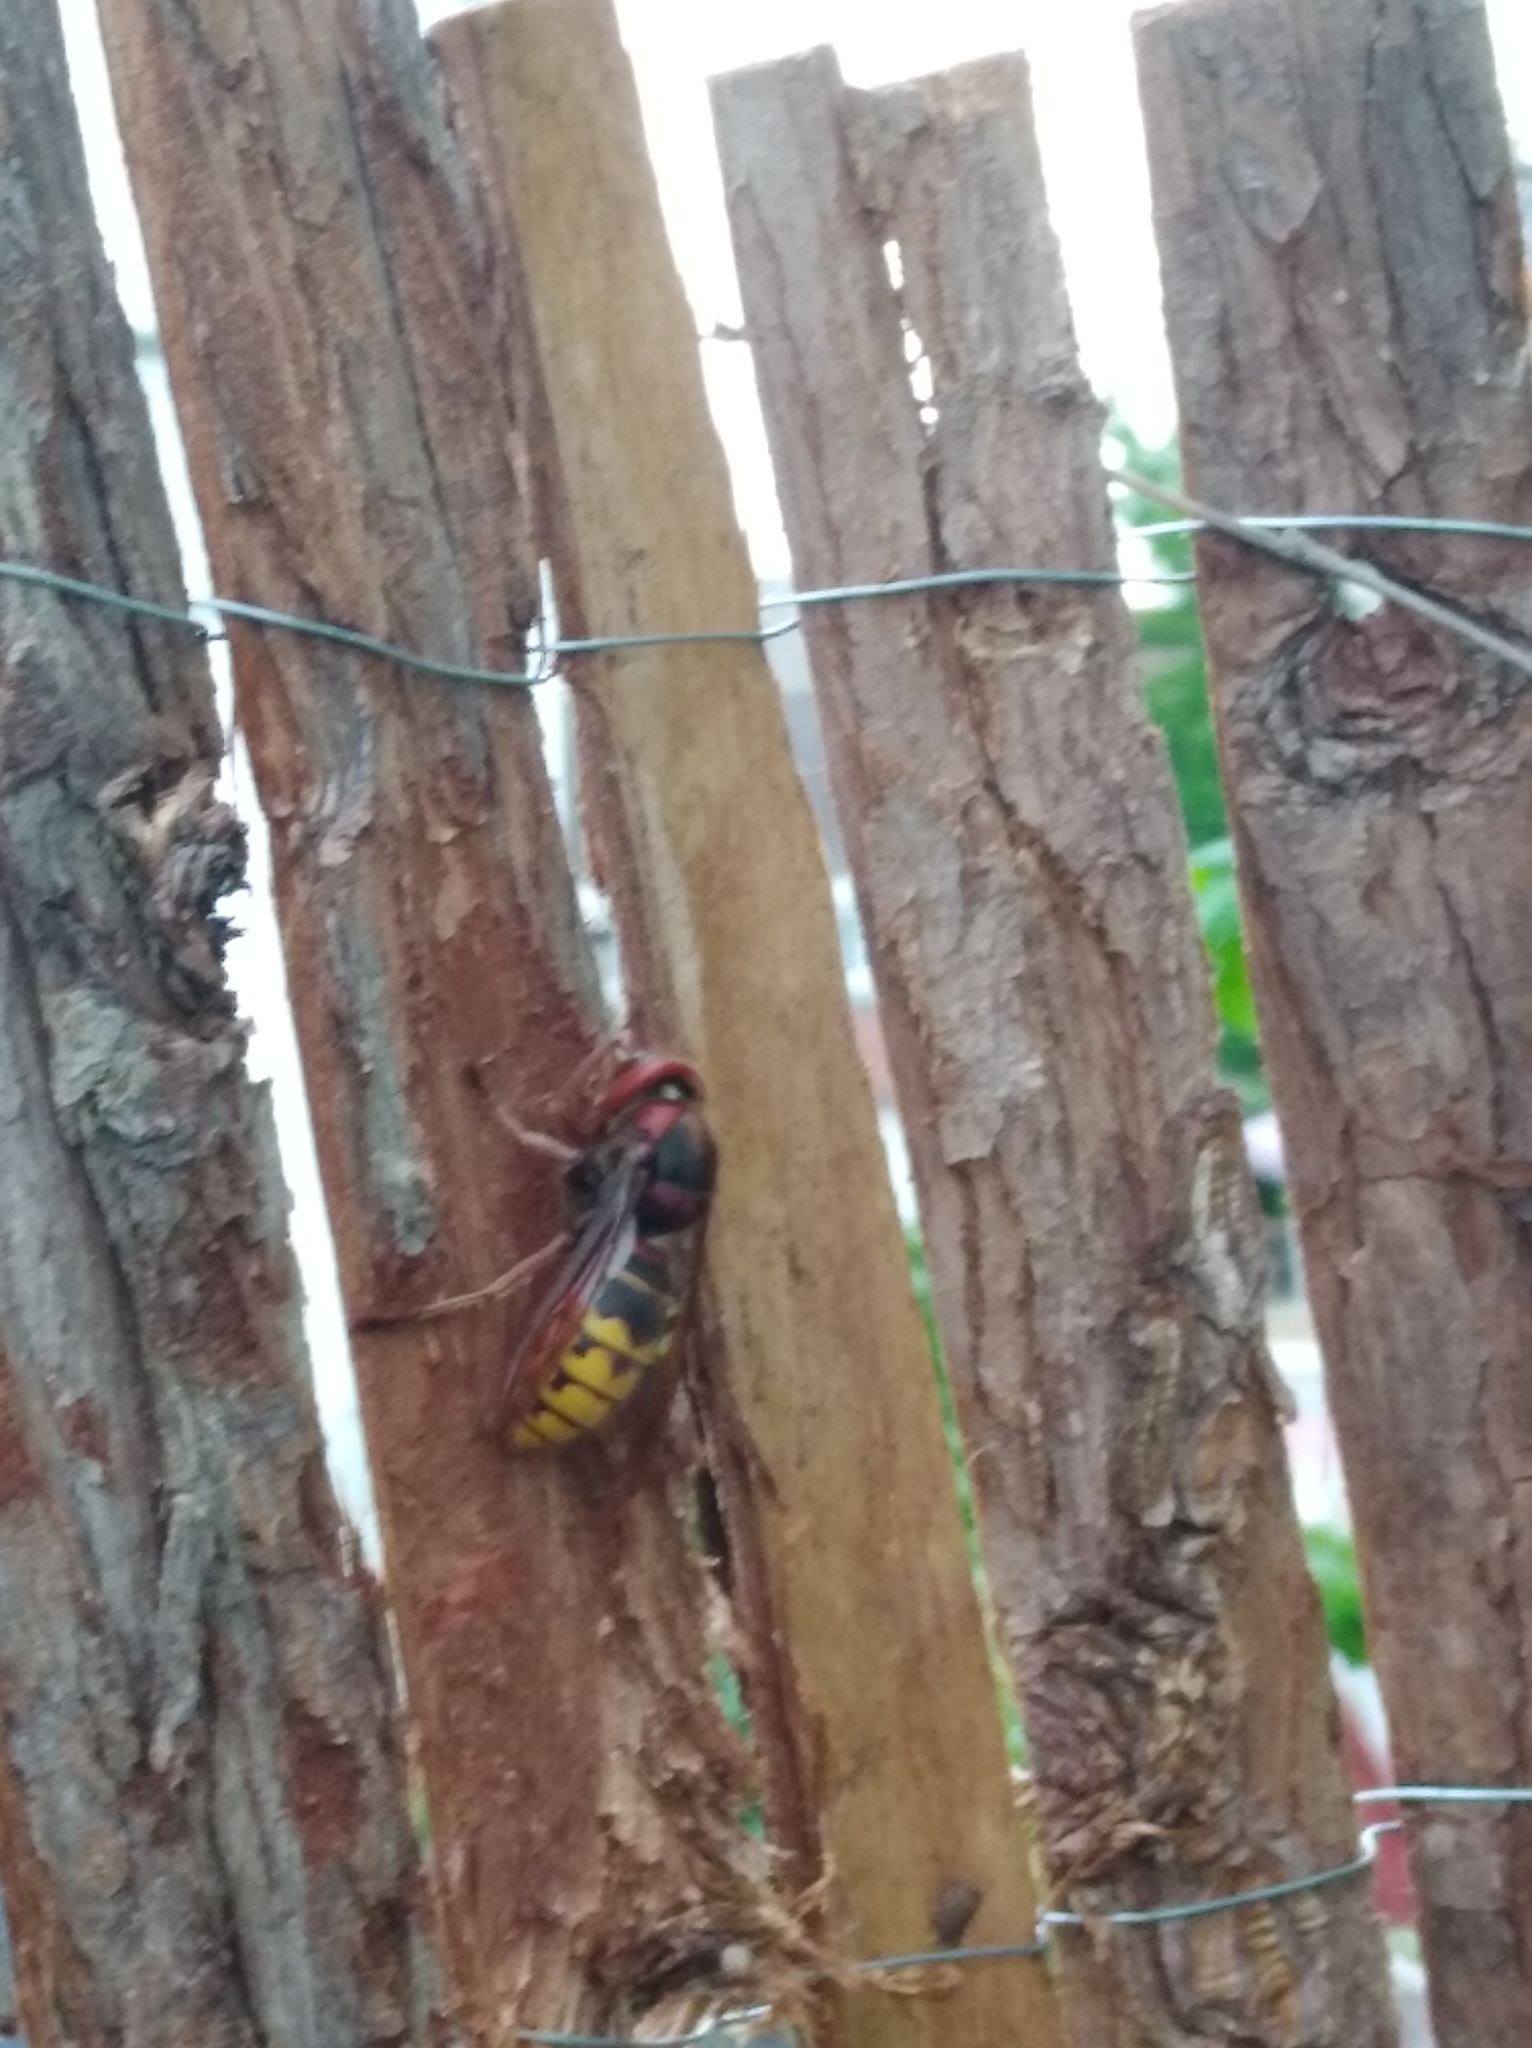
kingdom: Animalia
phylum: Arthropoda
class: Insecta
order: Hymenoptera
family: Vespidae
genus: Vespa
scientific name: Vespa crabro
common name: Hornet
